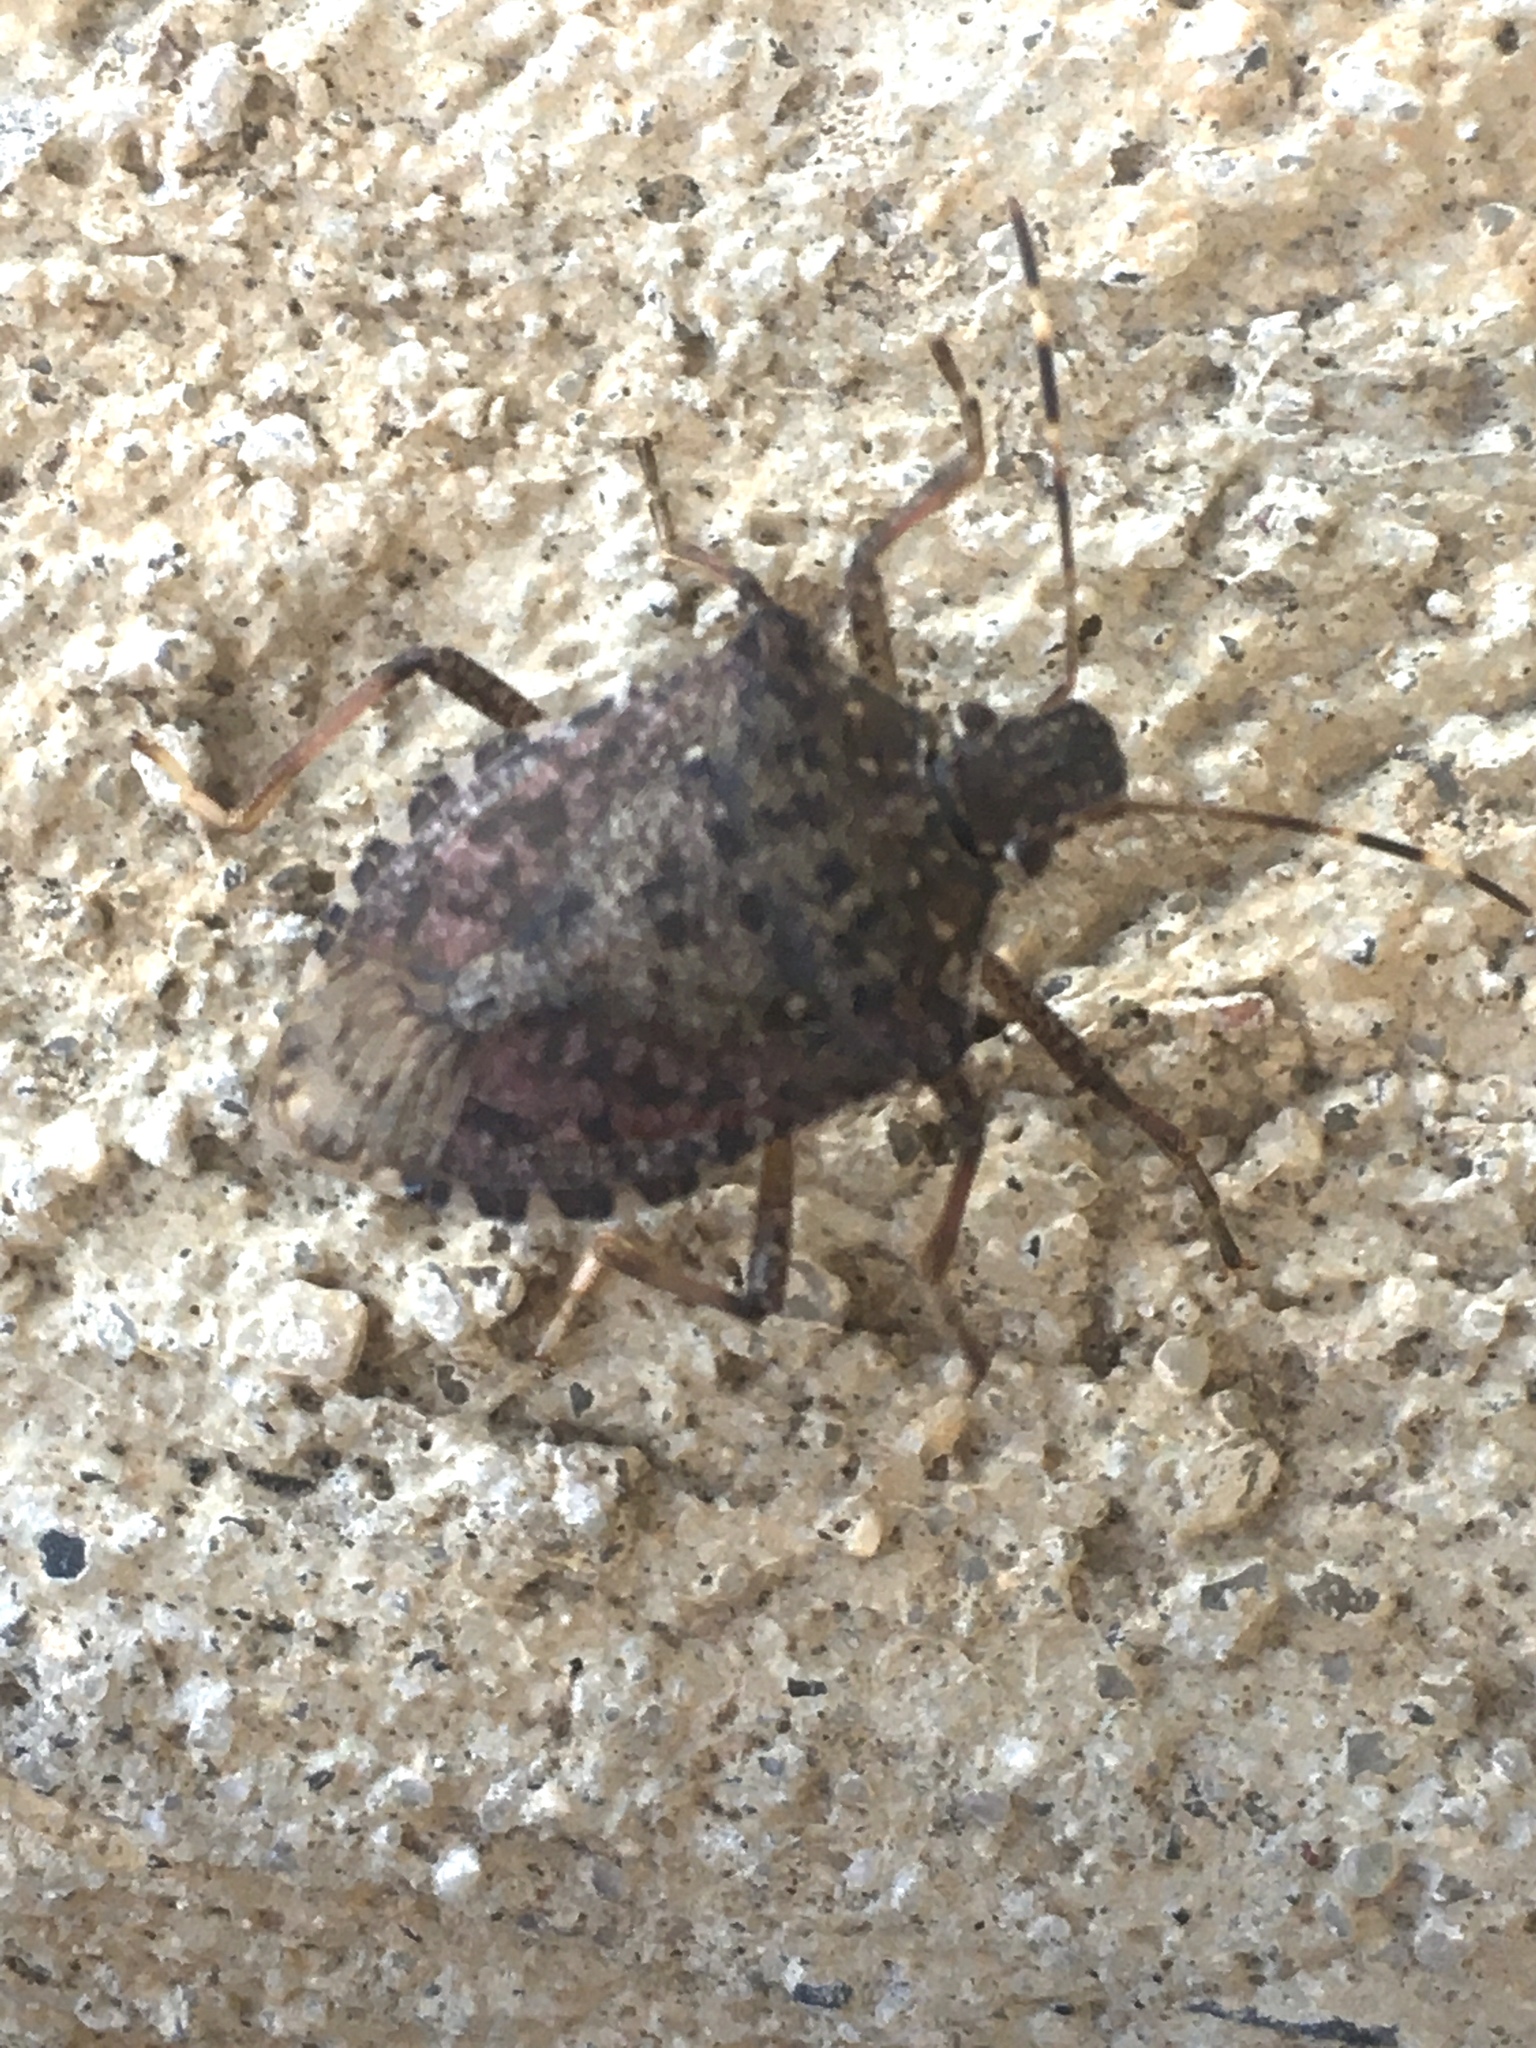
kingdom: Animalia
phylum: Arthropoda
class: Insecta
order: Hemiptera
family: Pentatomidae
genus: Halyomorpha
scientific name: Halyomorpha halys
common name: Brown marmorated stink bug
